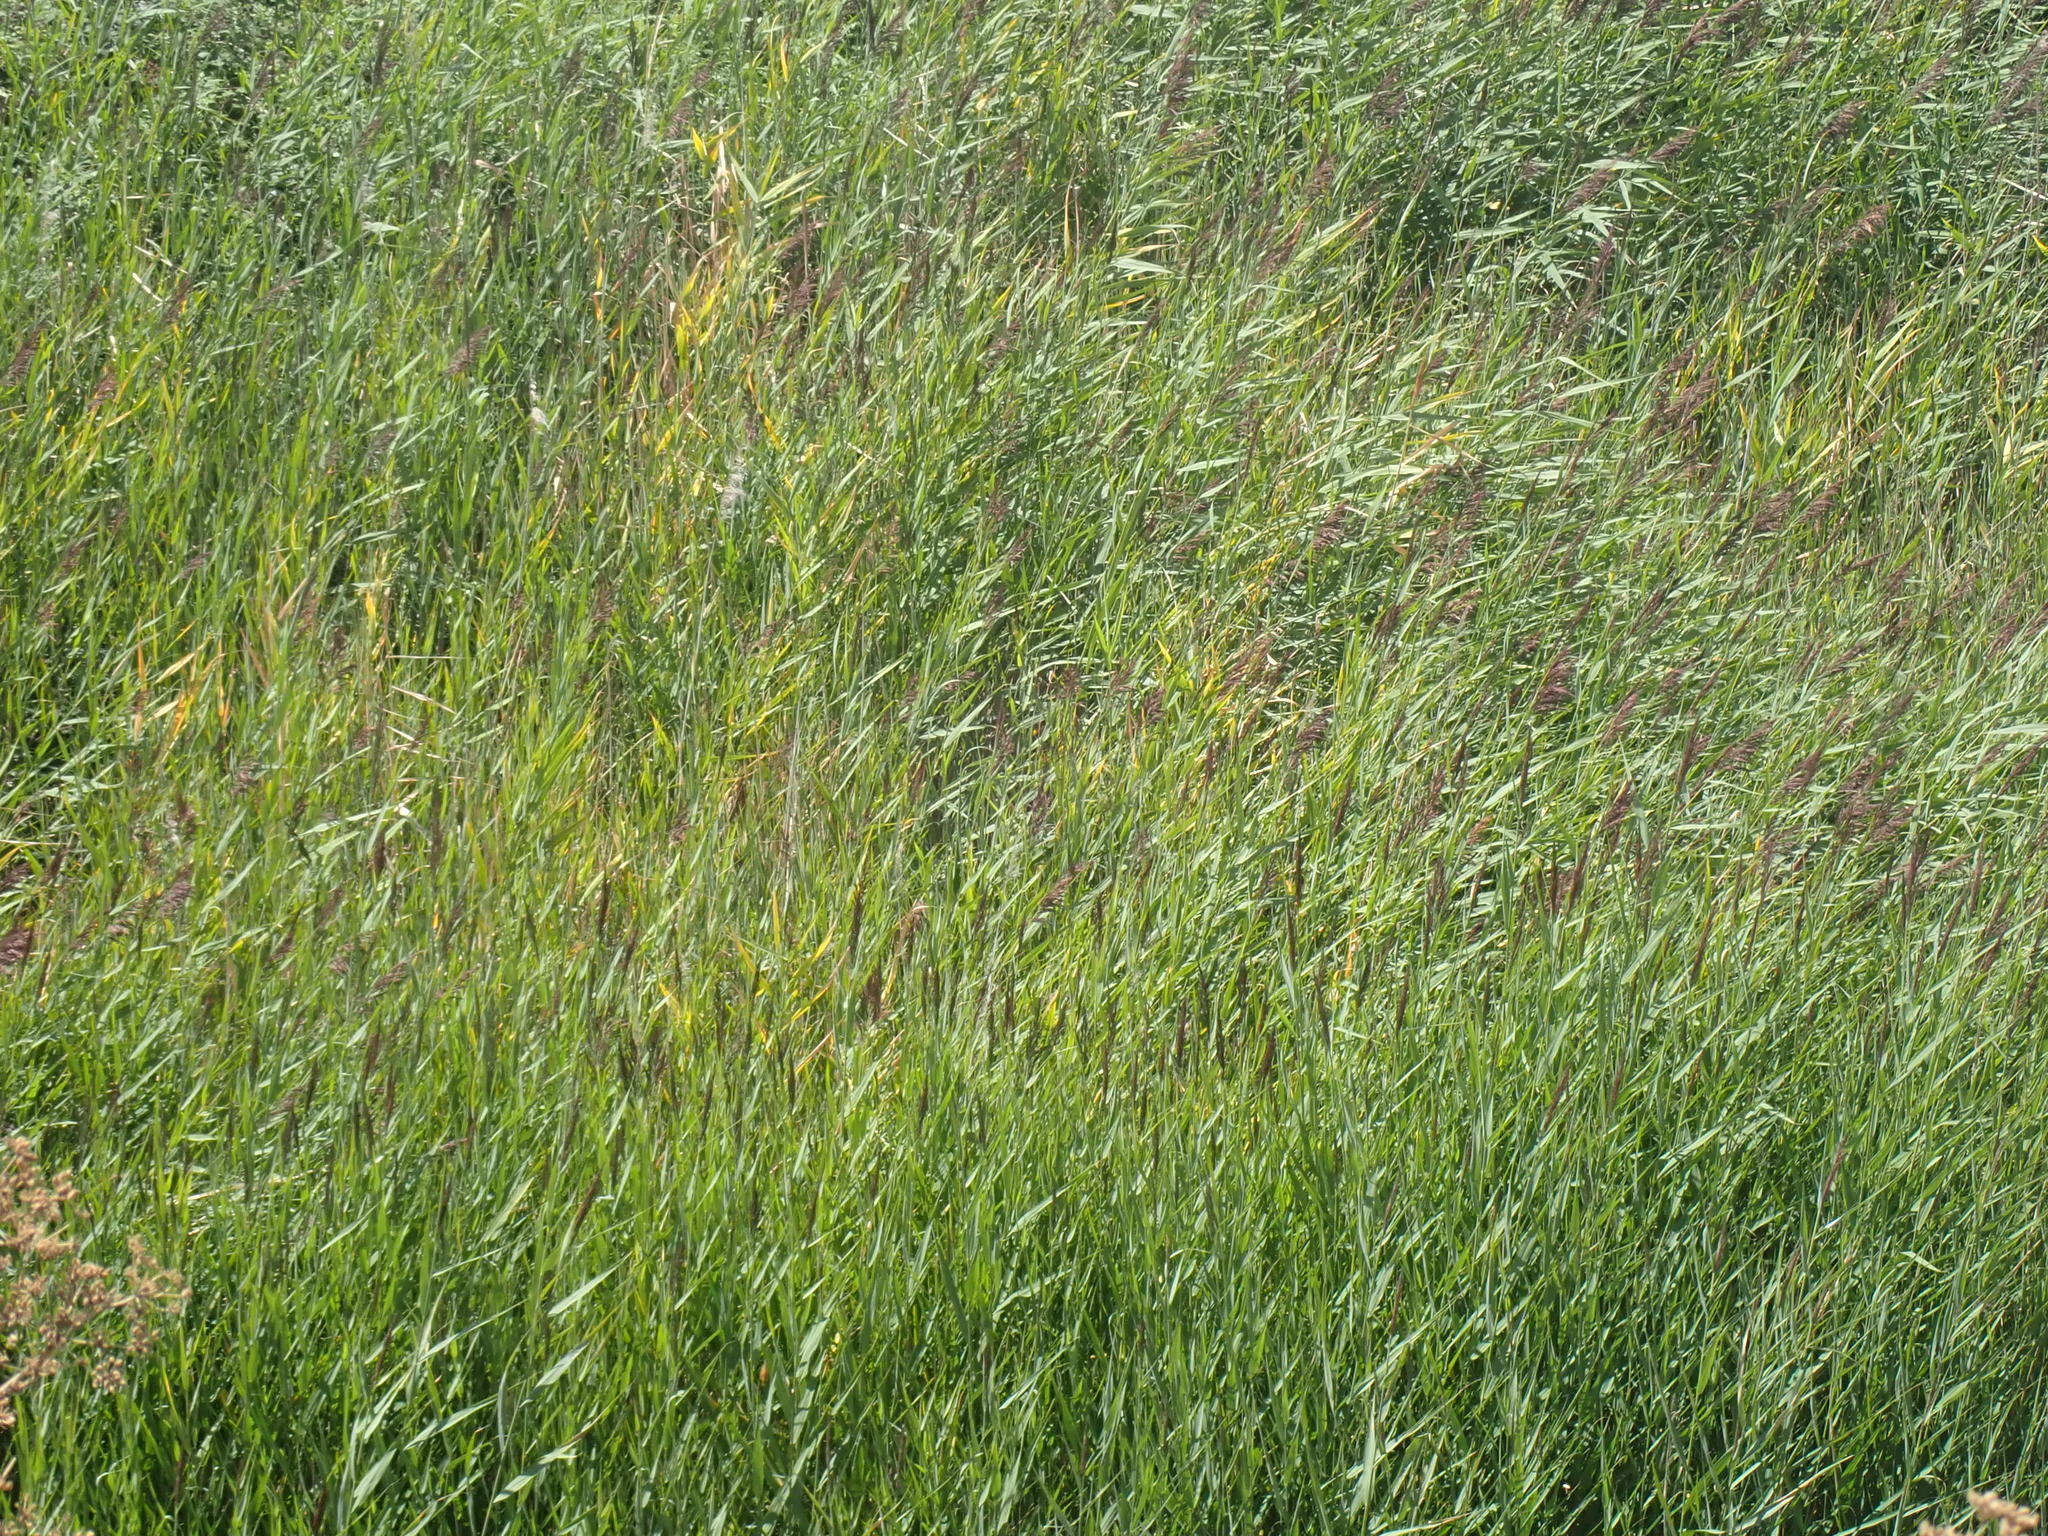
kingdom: Plantae
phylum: Tracheophyta
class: Liliopsida
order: Poales
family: Poaceae
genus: Phragmites
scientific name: Phragmites australis
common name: Common reed
